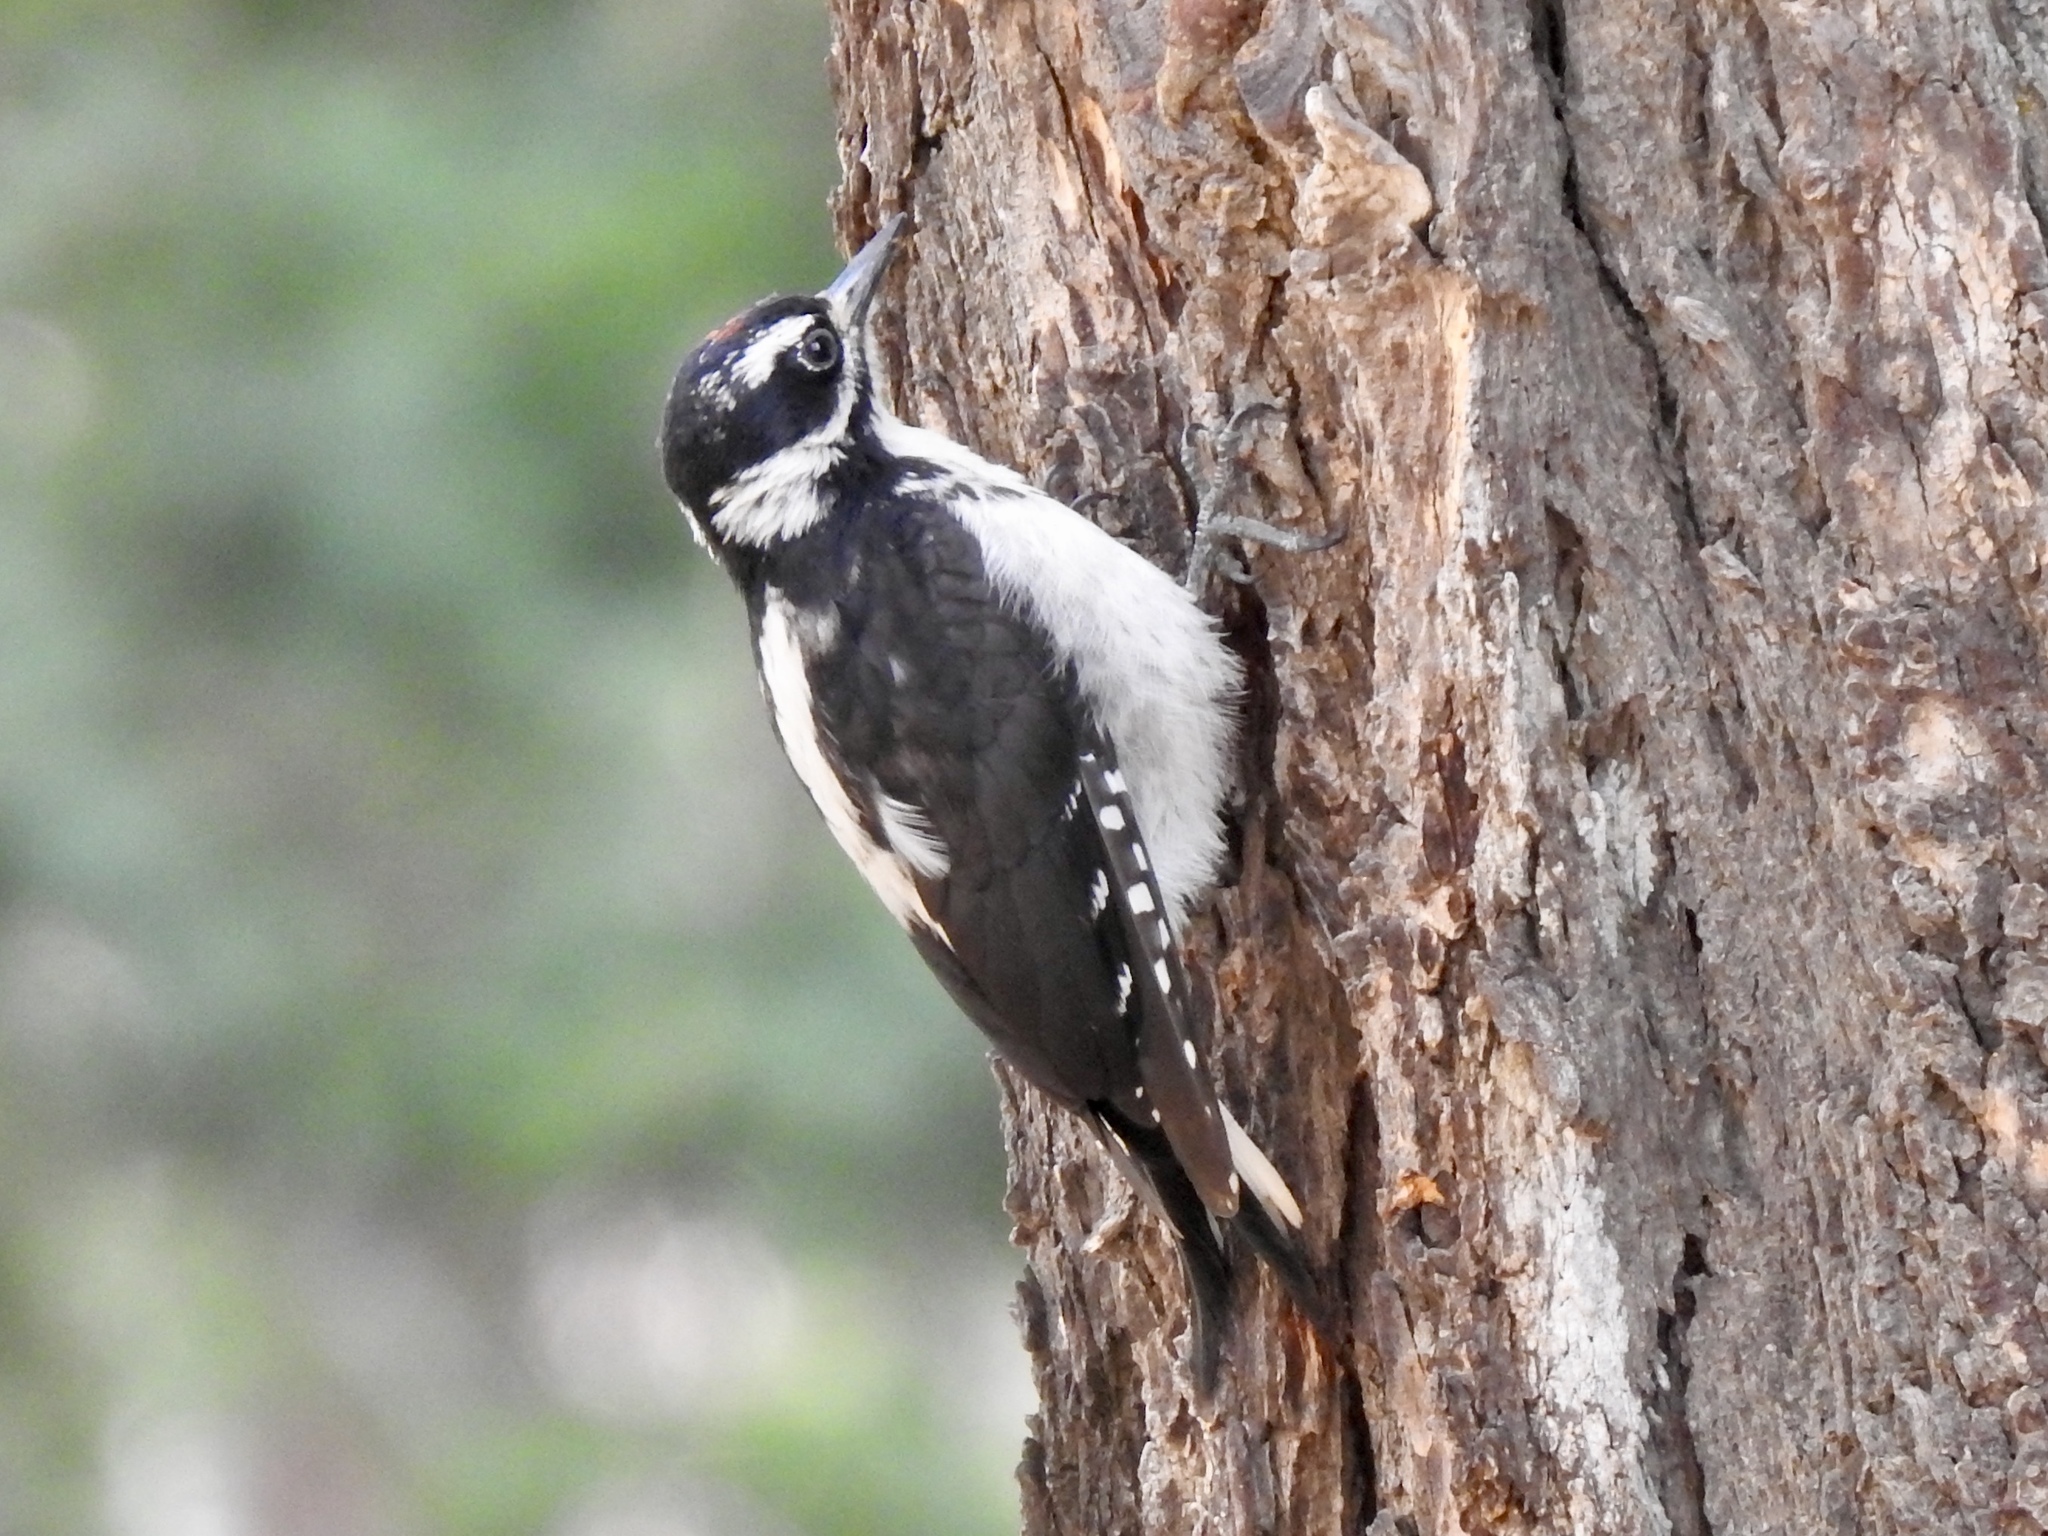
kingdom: Animalia
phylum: Chordata
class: Aves
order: Piciformes
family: Picidae
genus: Leuconotopicus
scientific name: Leuconotopicus villosus
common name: Hairy woodpecker
